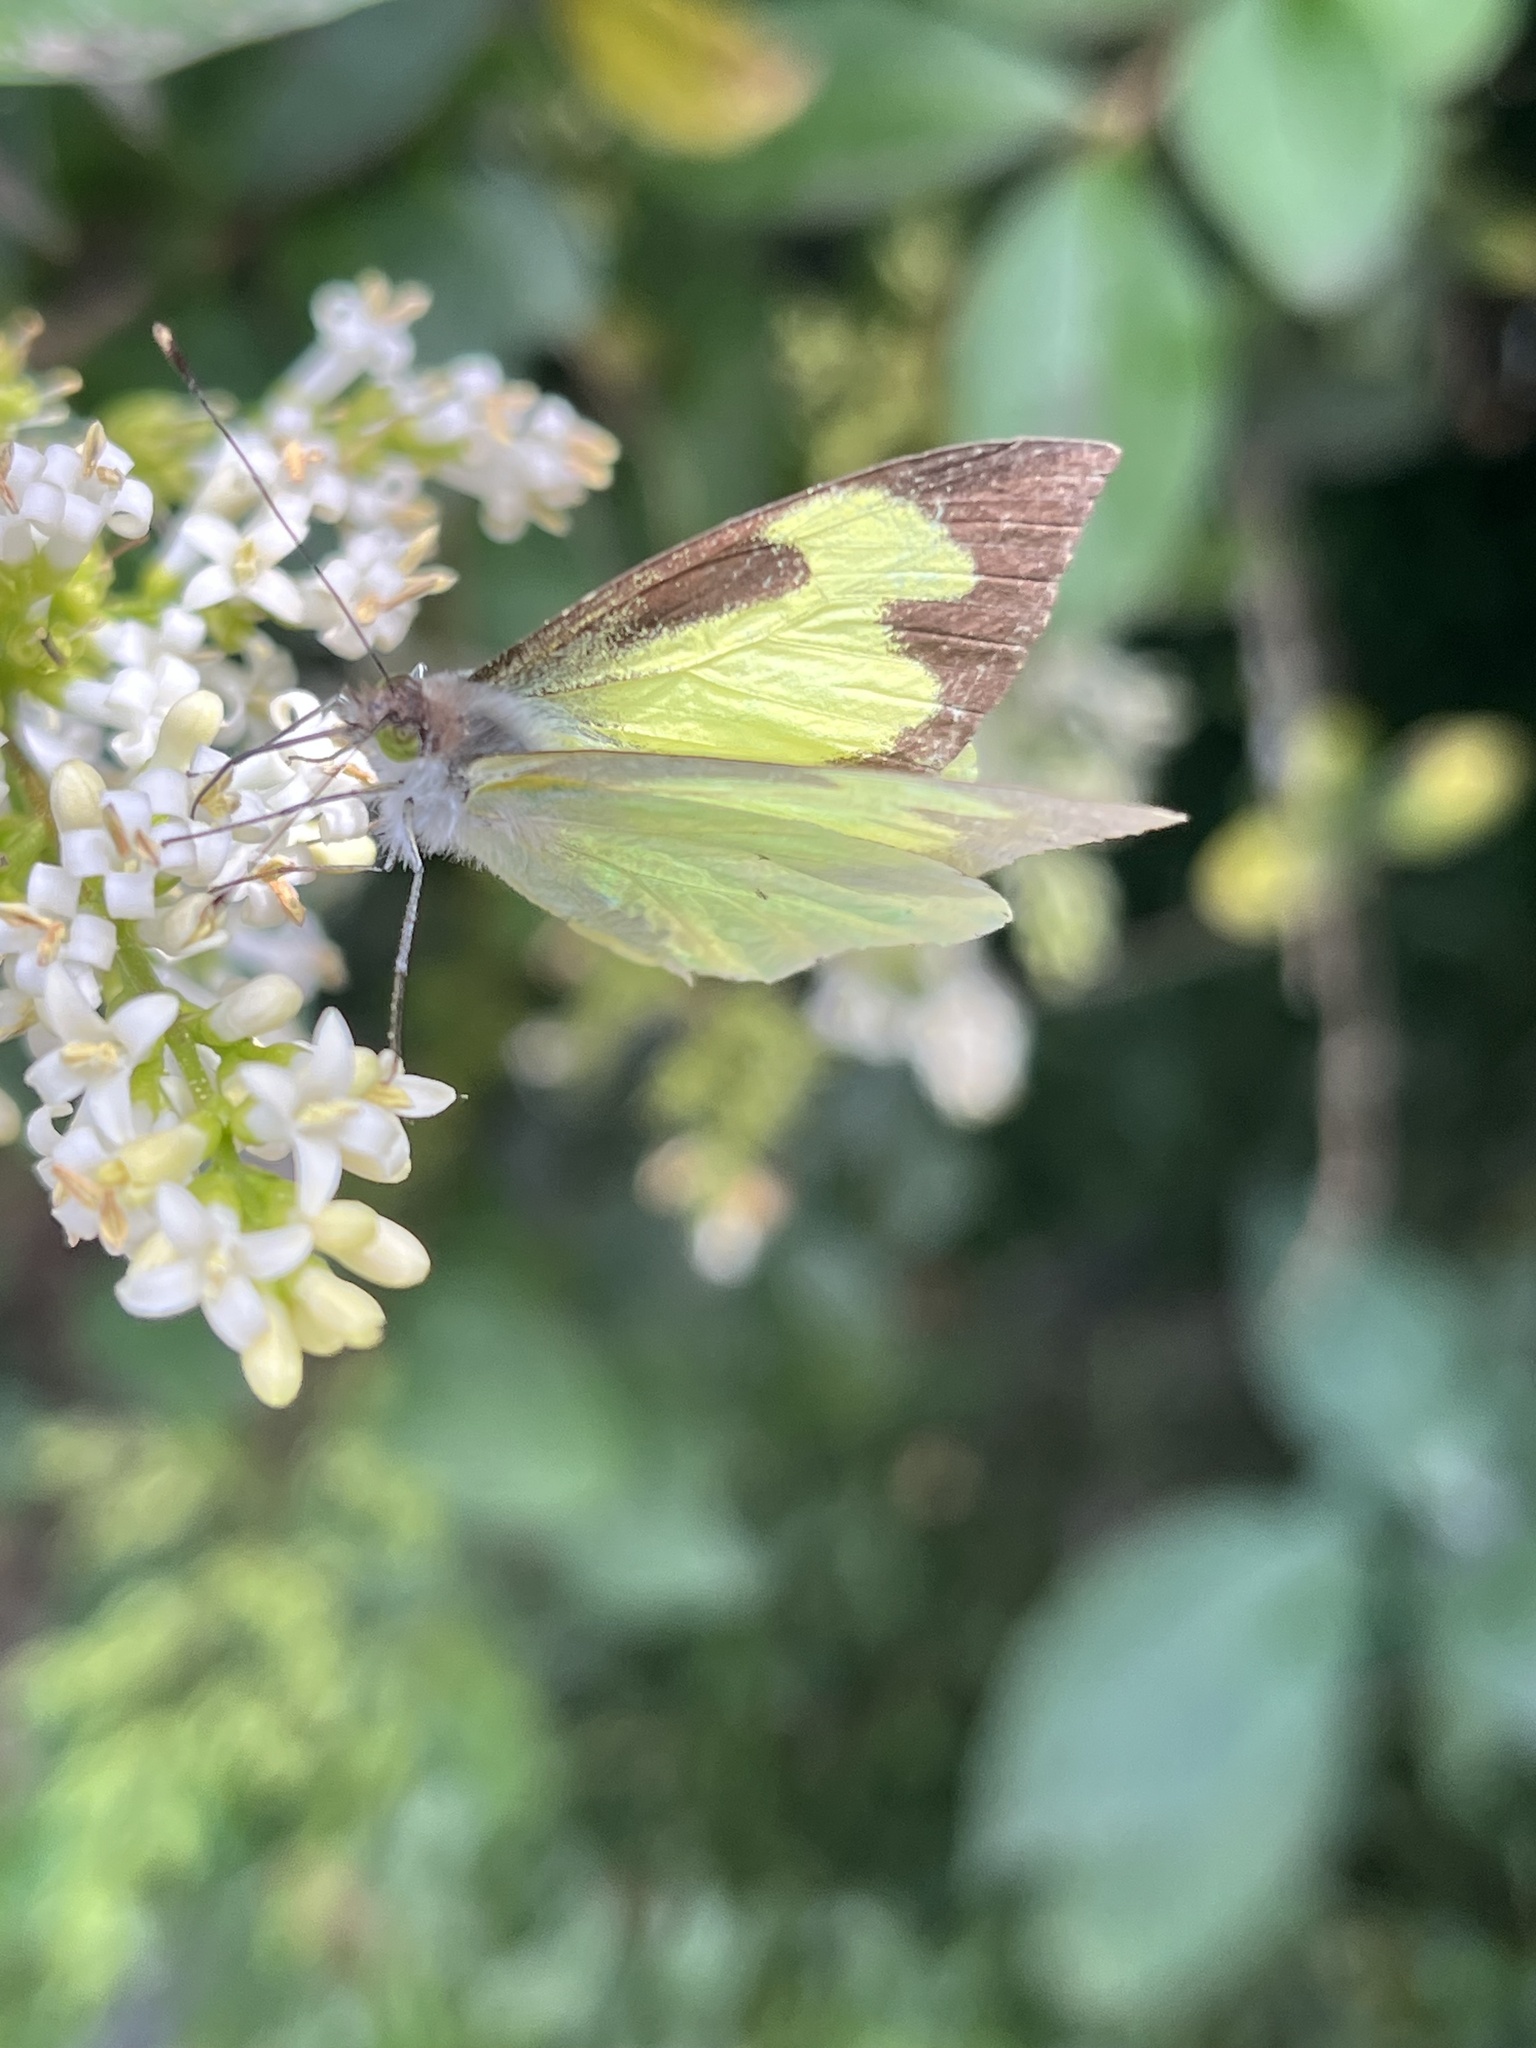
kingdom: Animalia
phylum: Arthropoda
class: Insecta
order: Lepidoptera
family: Pieridae
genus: Leptophobia
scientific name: Leptophobia eleone
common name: Silky wanderer
